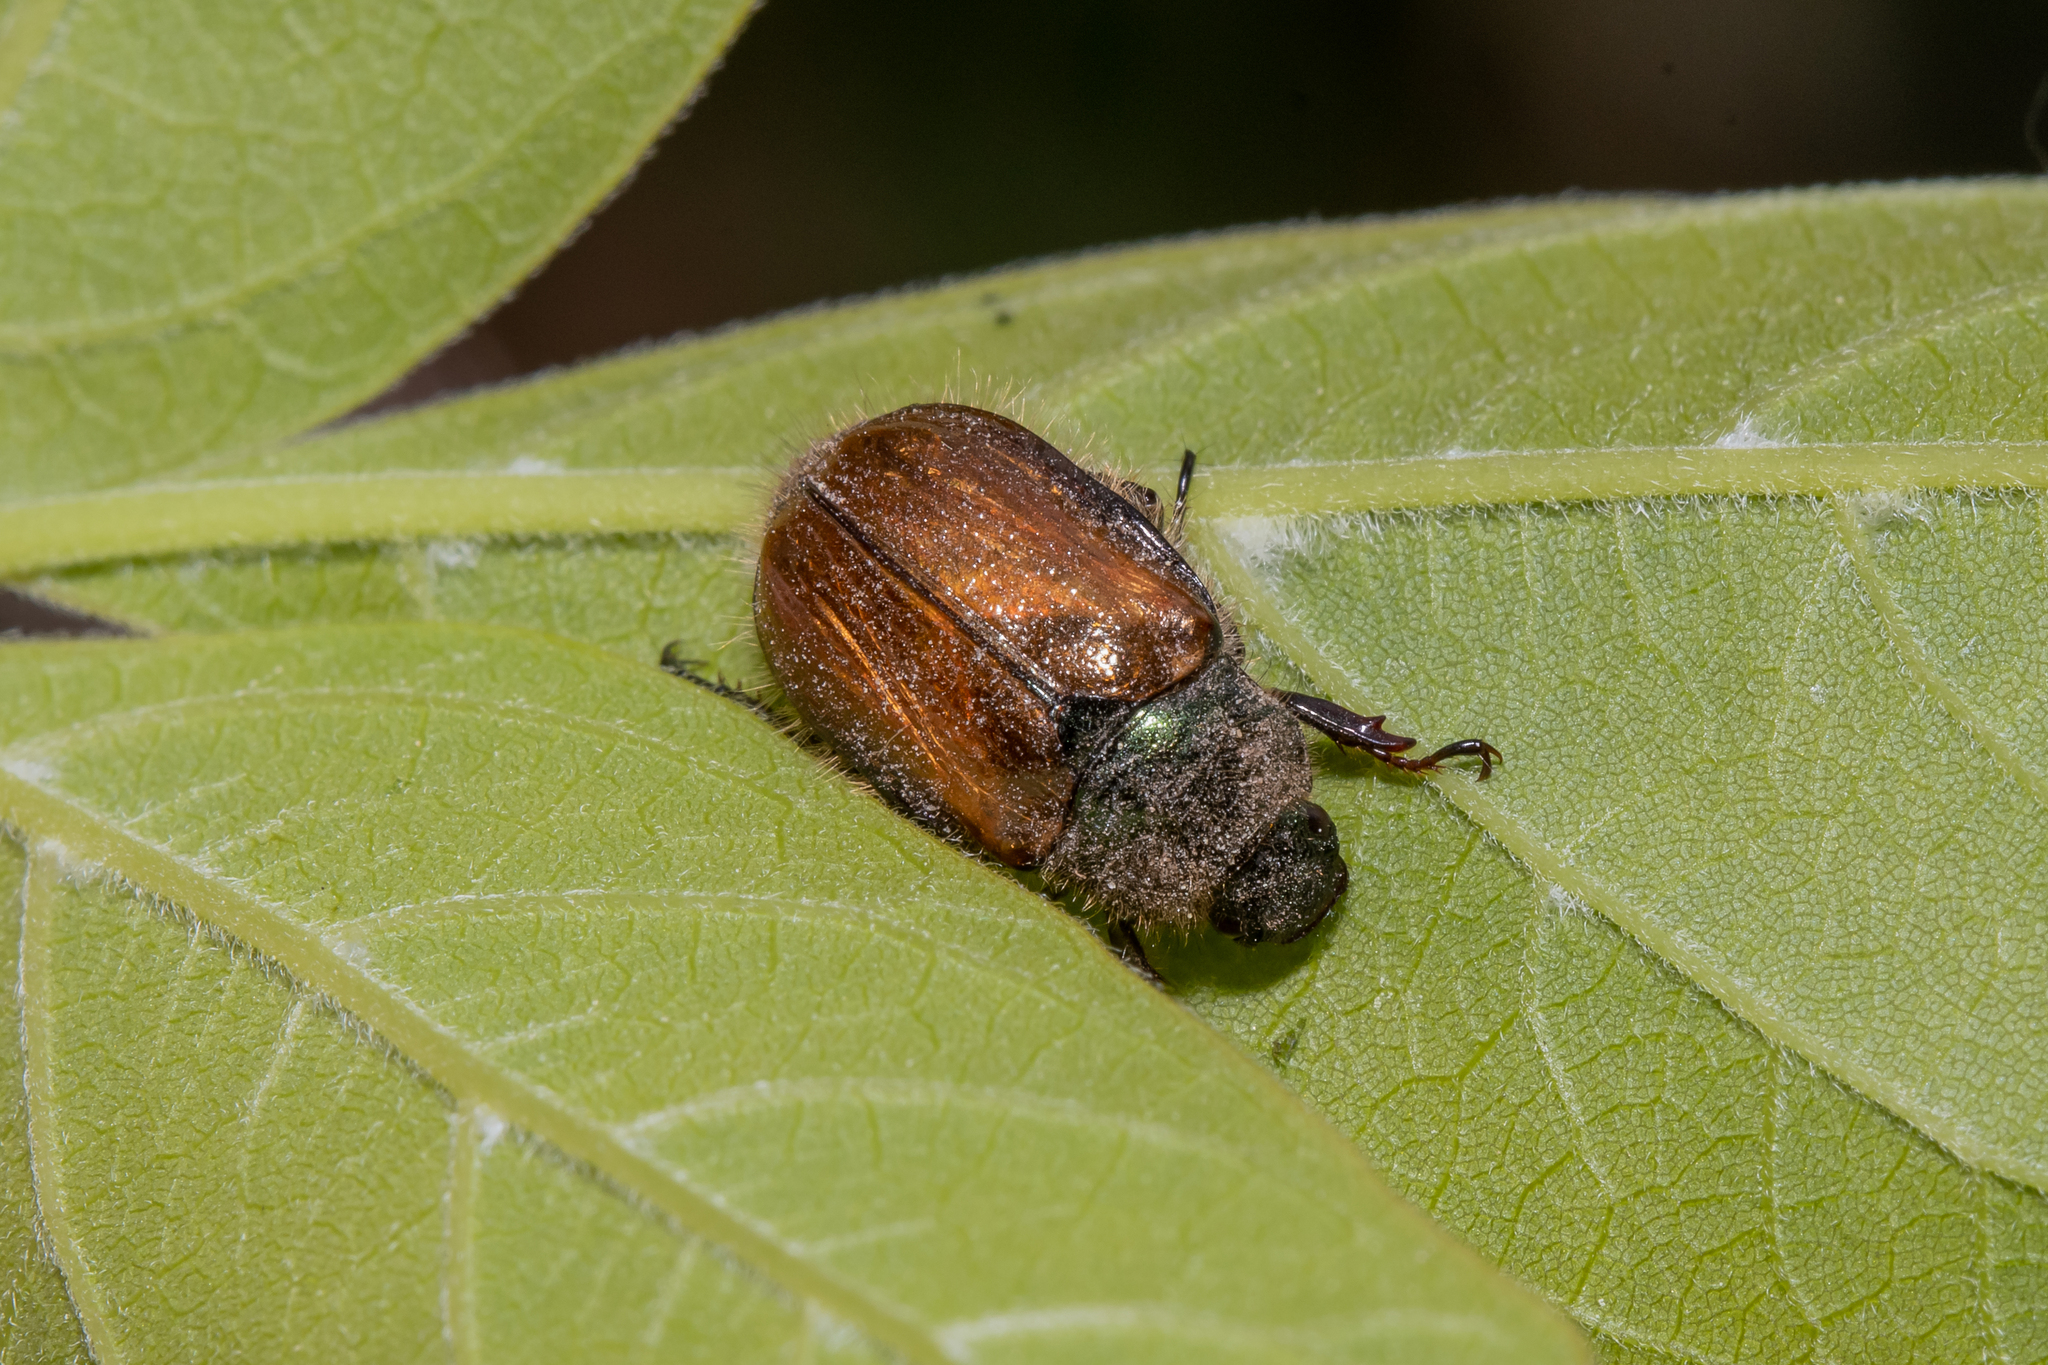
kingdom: Animalia
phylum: Arthropoda
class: Insecta
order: Coleoptera
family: Scarabaeidae
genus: Phyllopertha
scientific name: Phyllopertha horticola
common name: Garden chafer
